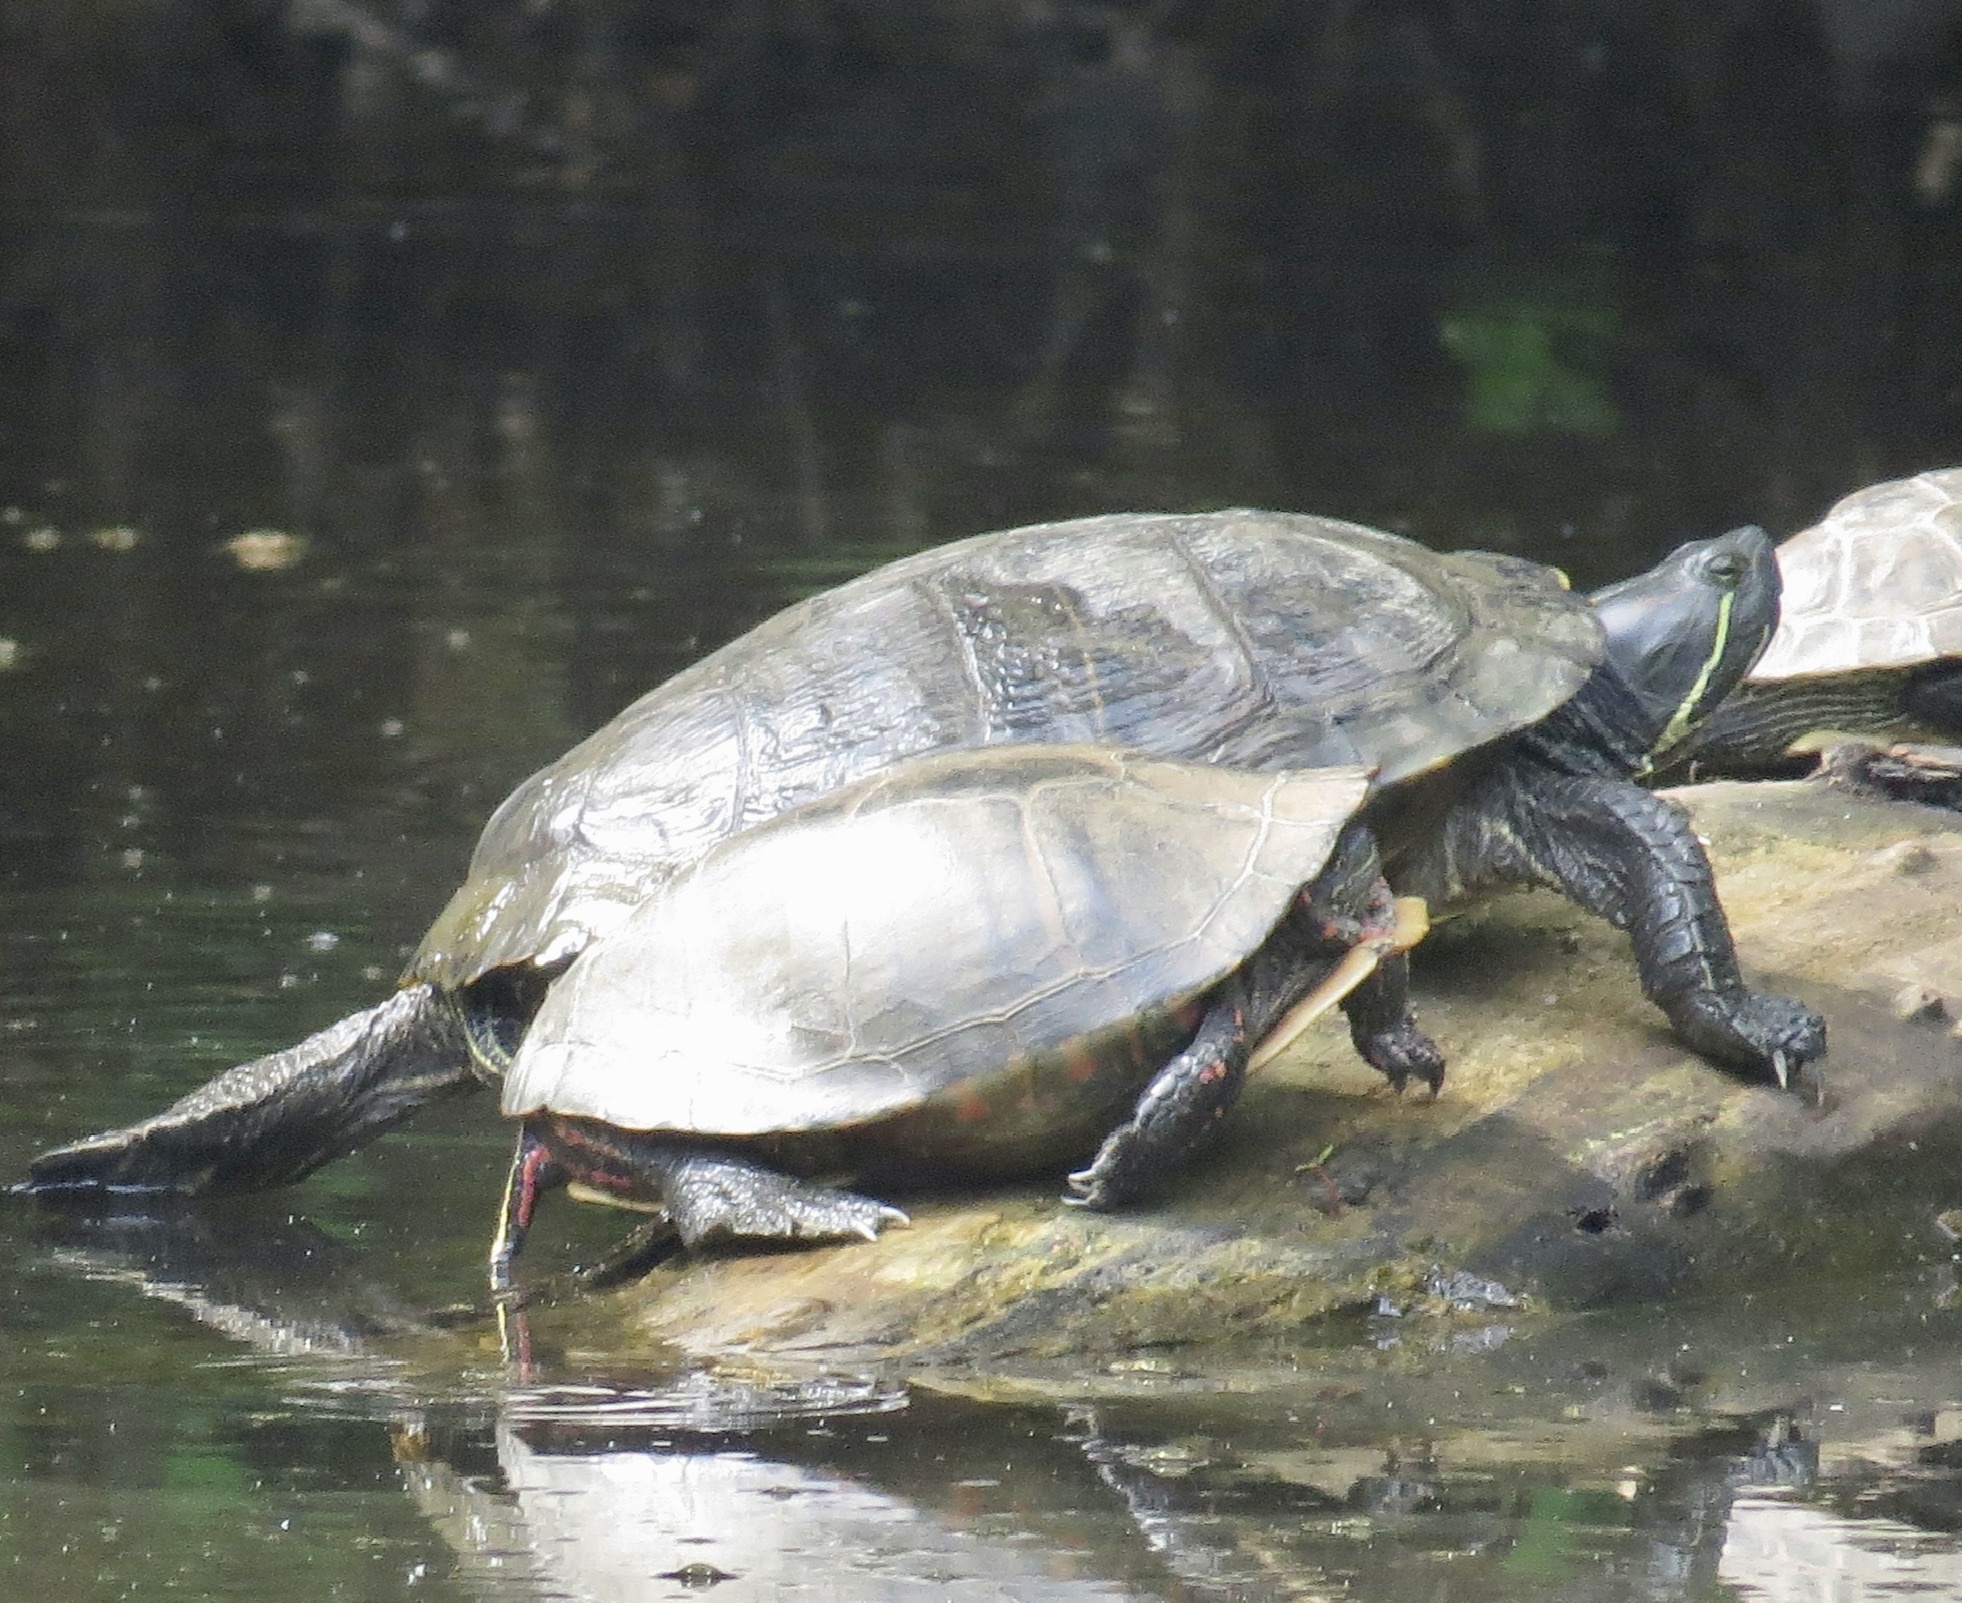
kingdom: Animalia
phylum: Chordata
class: Testudines
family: Emydidae
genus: Trachemys
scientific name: Trachemys scripta
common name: Slider
